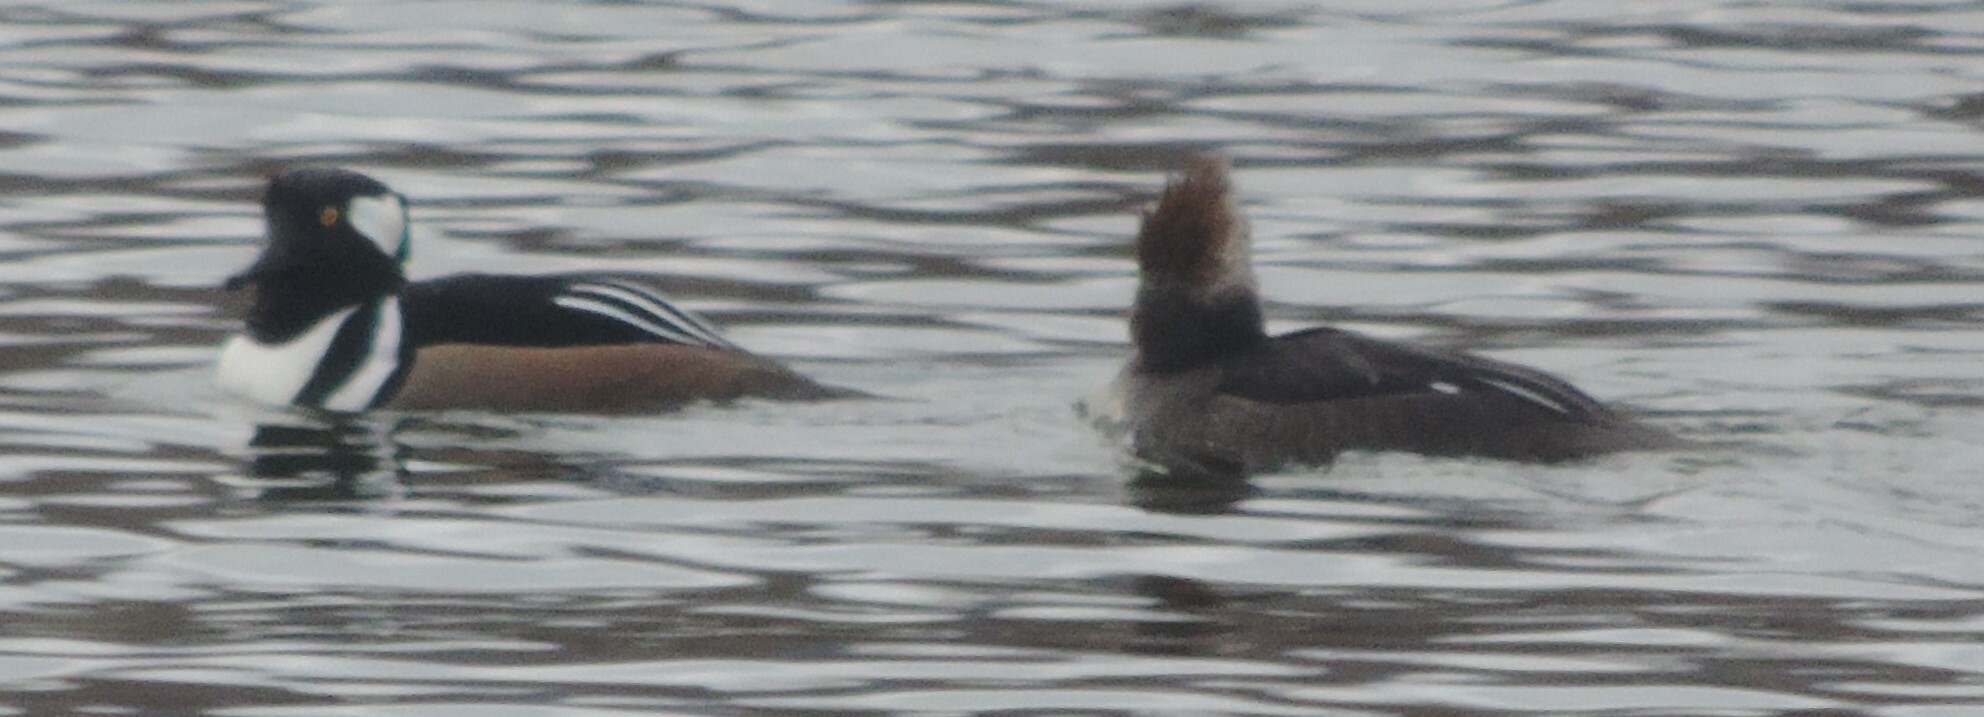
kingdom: Animalia
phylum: Chordata
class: Aves
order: Anseriformes
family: Anatidae
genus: Lophodytes
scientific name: Lophodytes cucullatus
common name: Hooded merganser
